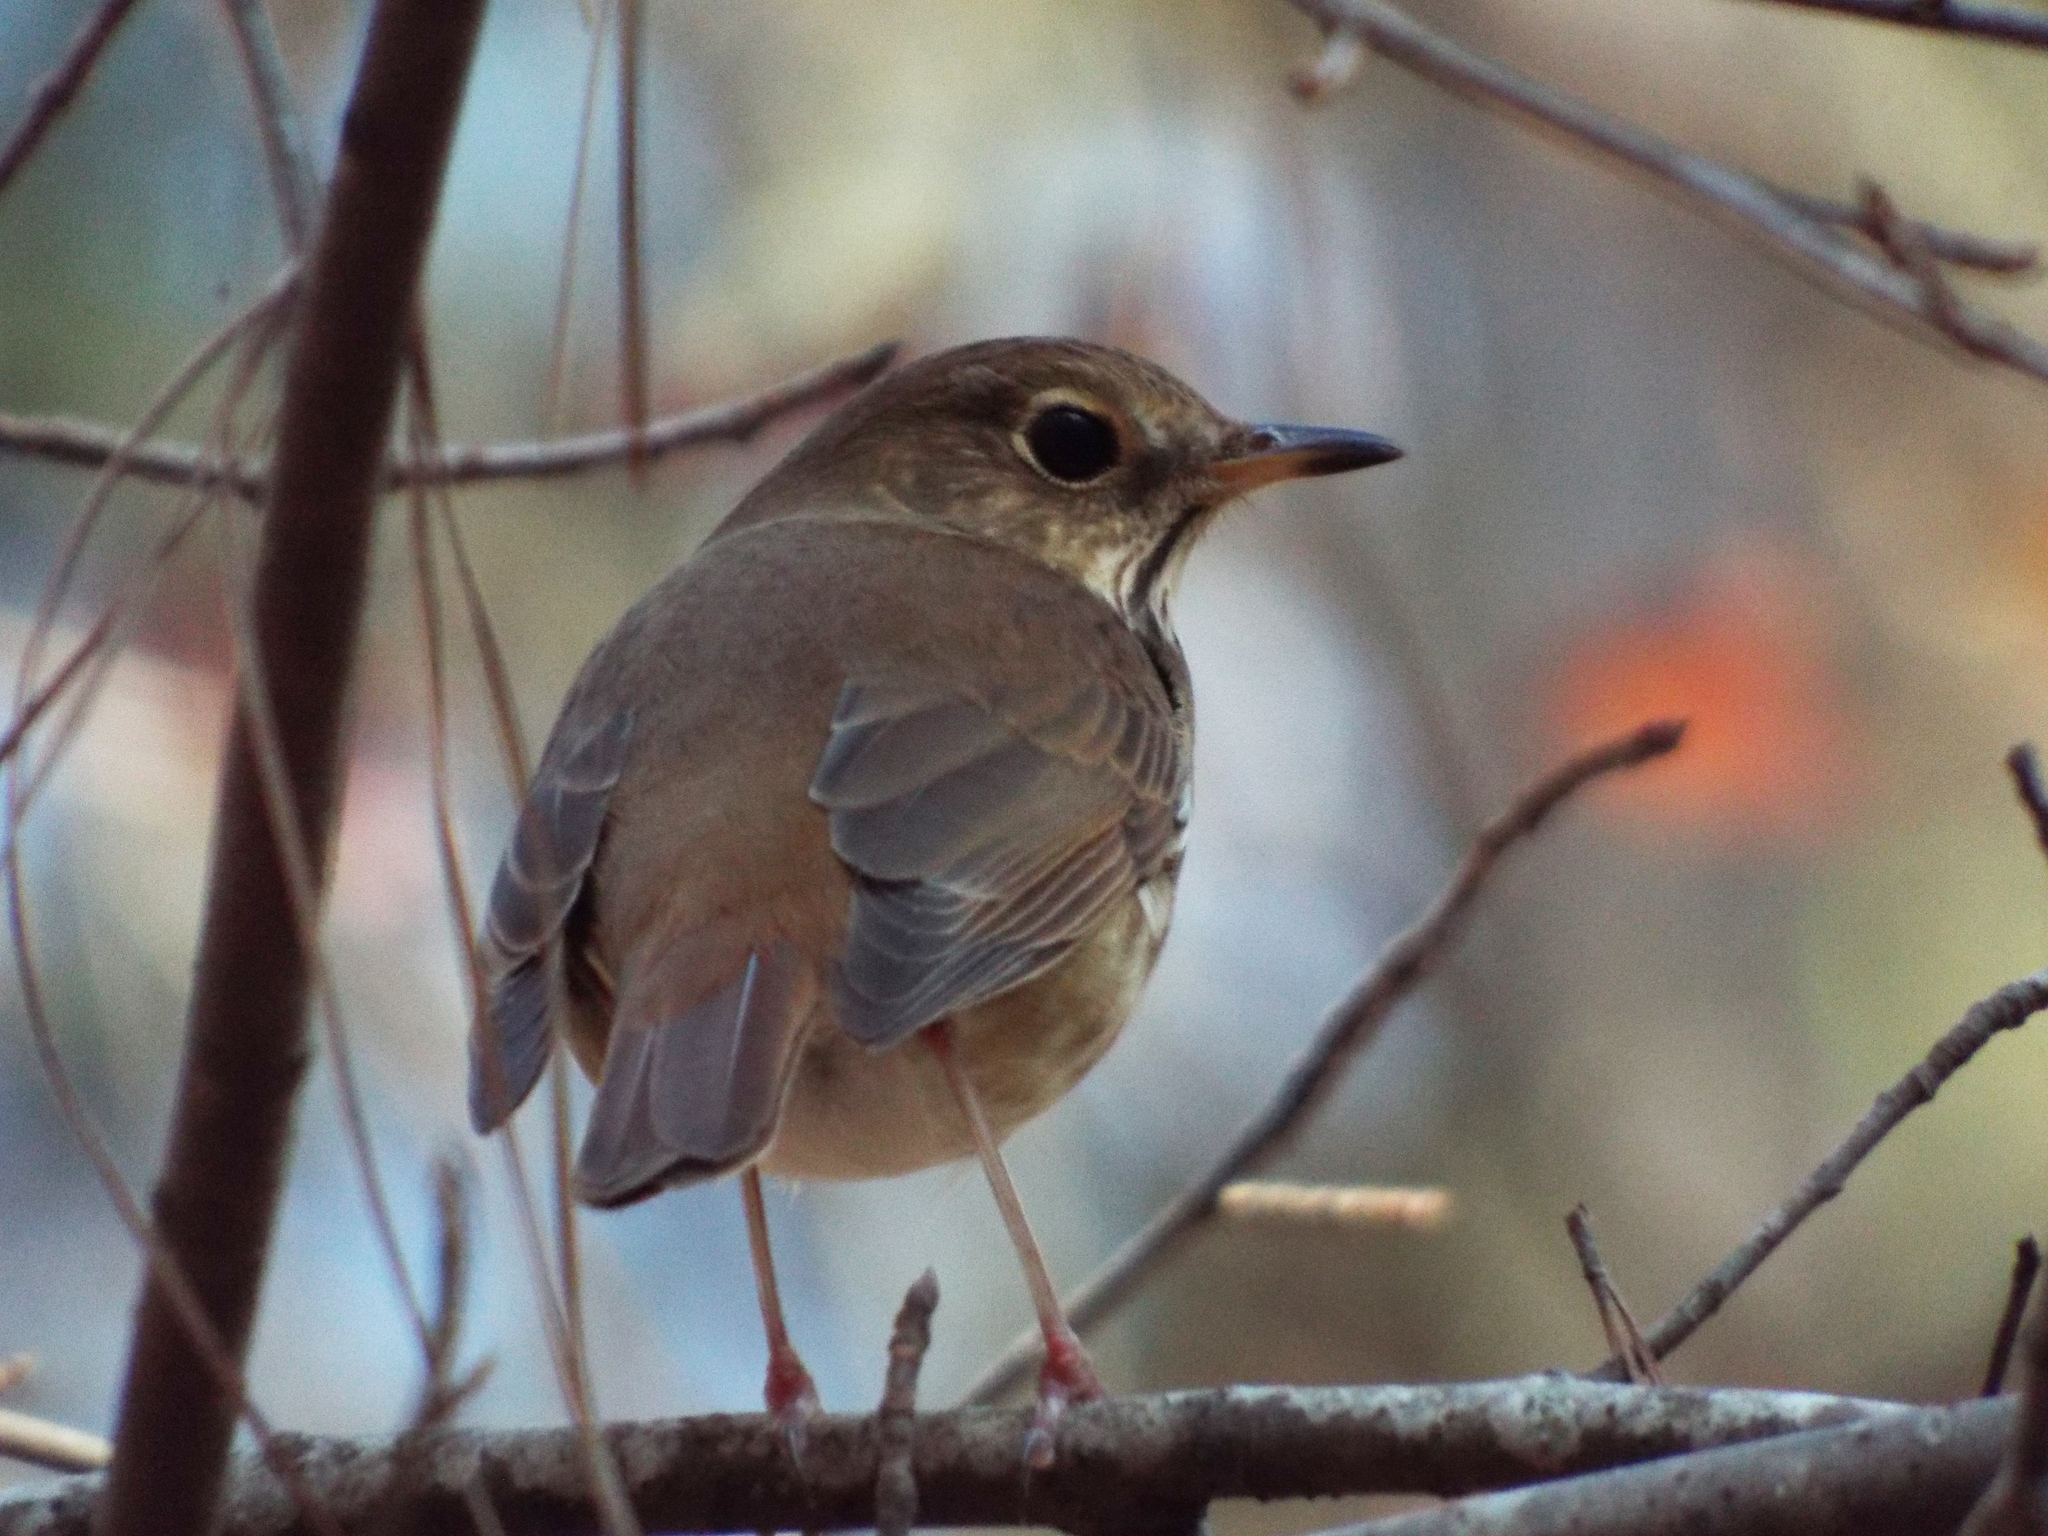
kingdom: Animalia
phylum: Chordata
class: Aves
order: Passeriformes
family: Turdidae
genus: Catharus
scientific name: Catharus guttatus
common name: Hermit thrush
